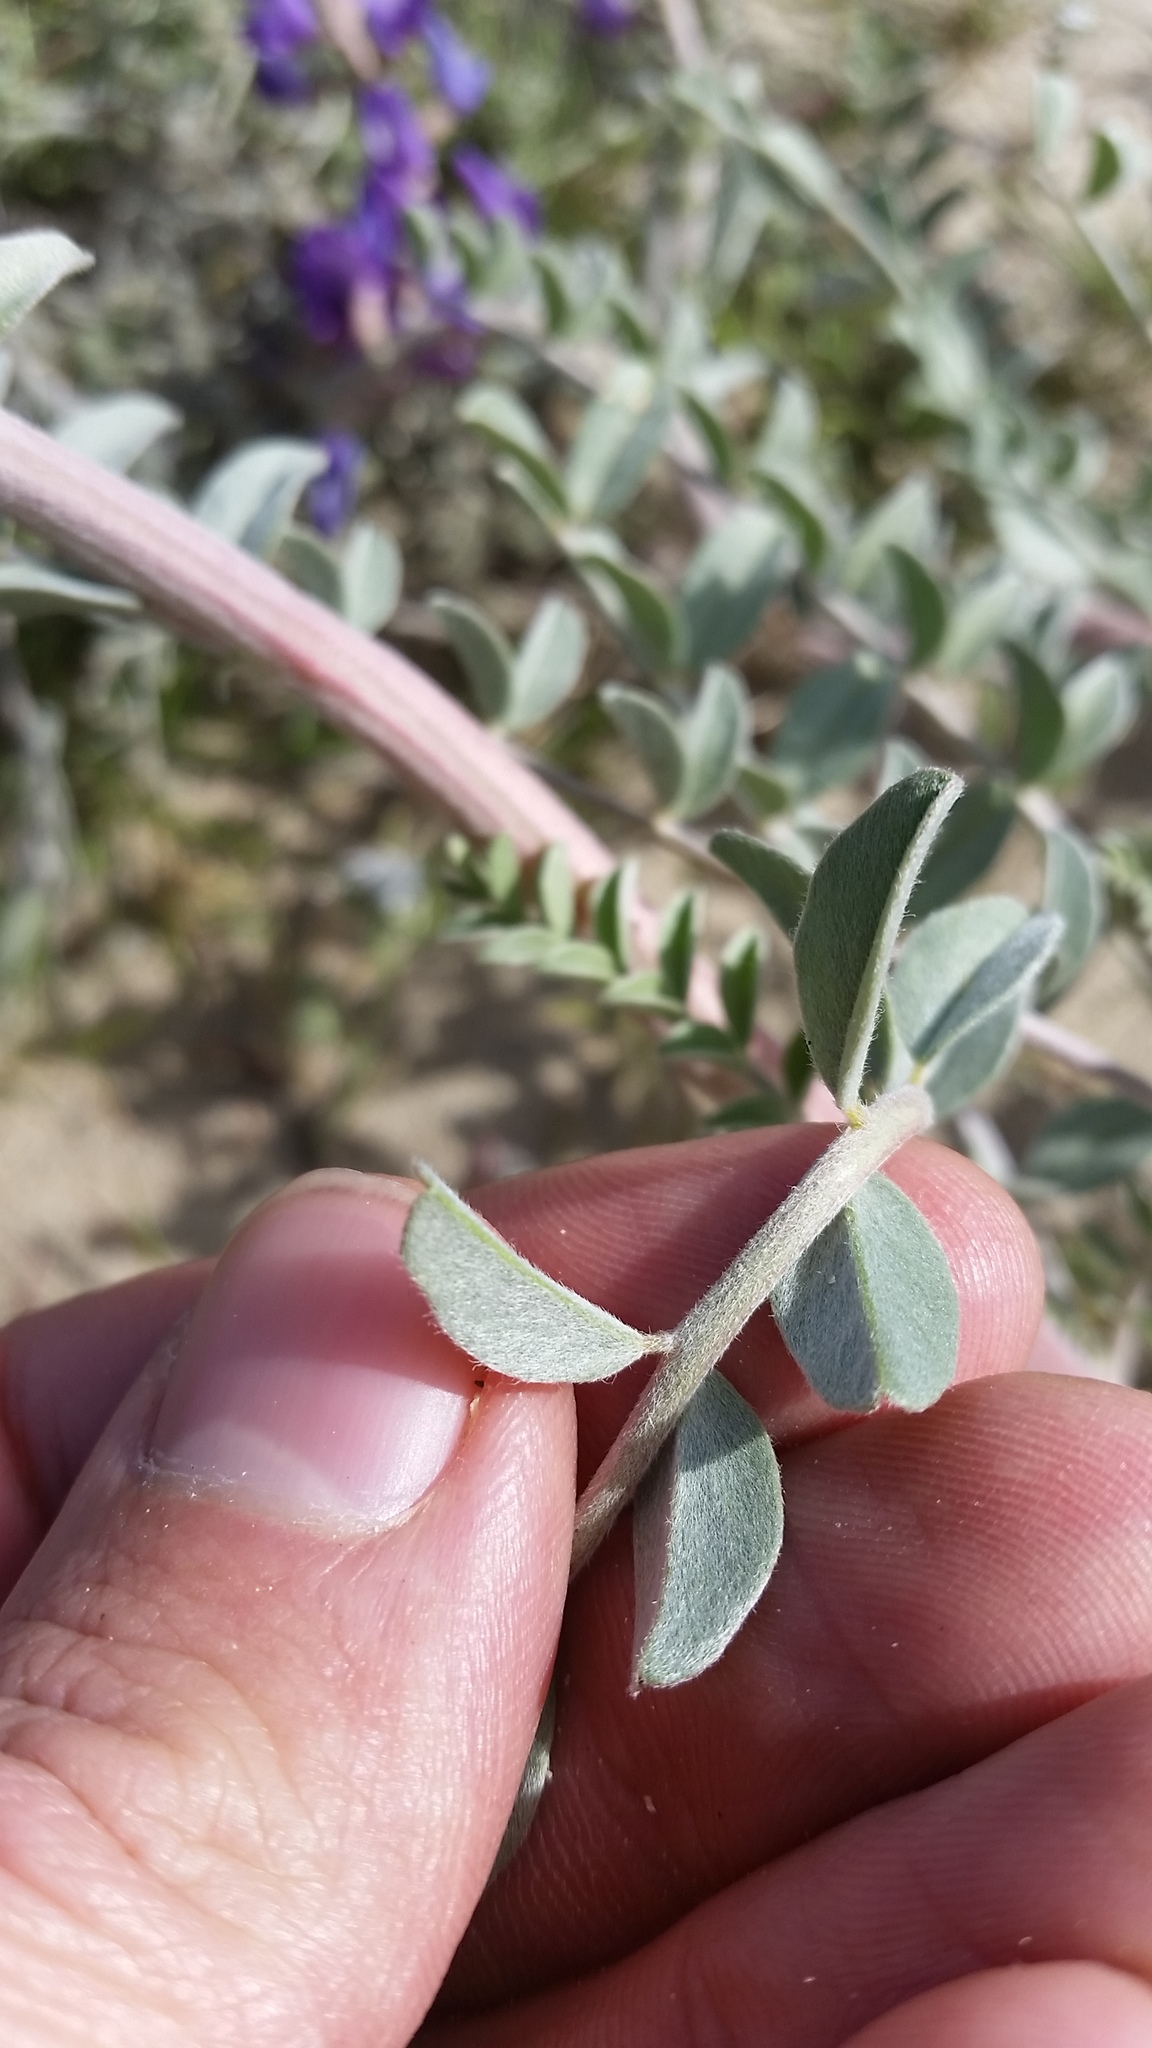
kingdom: Plantae
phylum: Tracheophyta
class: Magnoliopsida
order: Fabales
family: Fabaceae
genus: Astragalus
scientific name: Astragalus lentiginosus
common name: Freckled milkvetch
